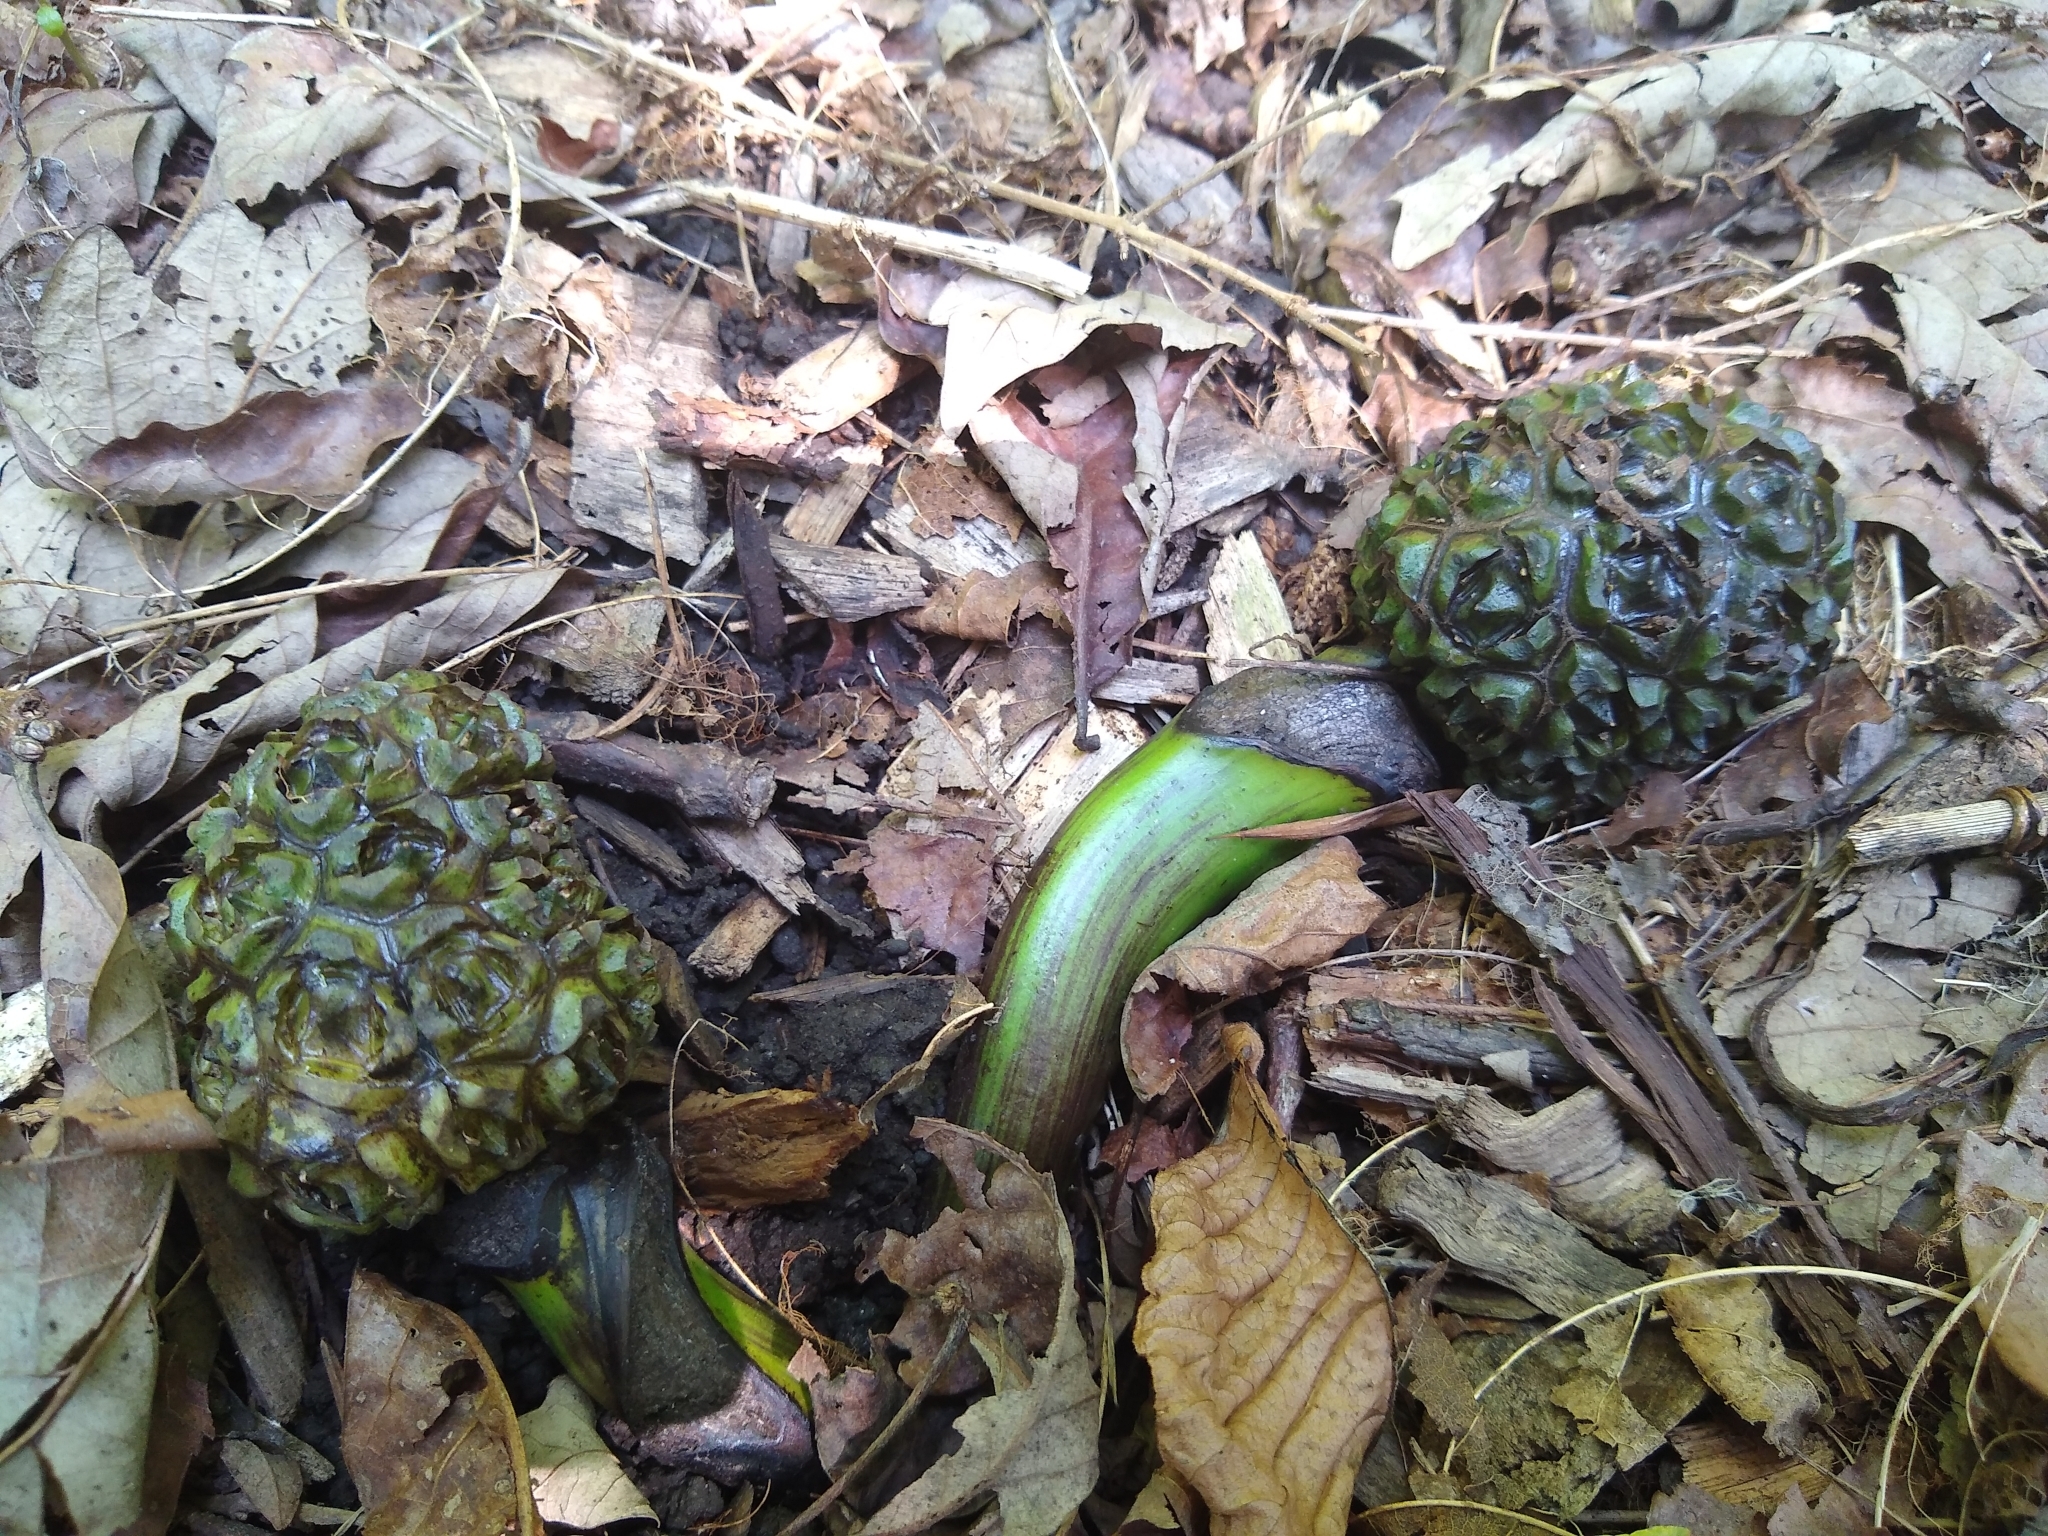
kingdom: Plantae
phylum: Tracheophyta
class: Liliopsida
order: Alismatales
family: Araceae
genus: Symplocarpus
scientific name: Symplocarpus foetidus
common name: Eastern skunk cabbage
